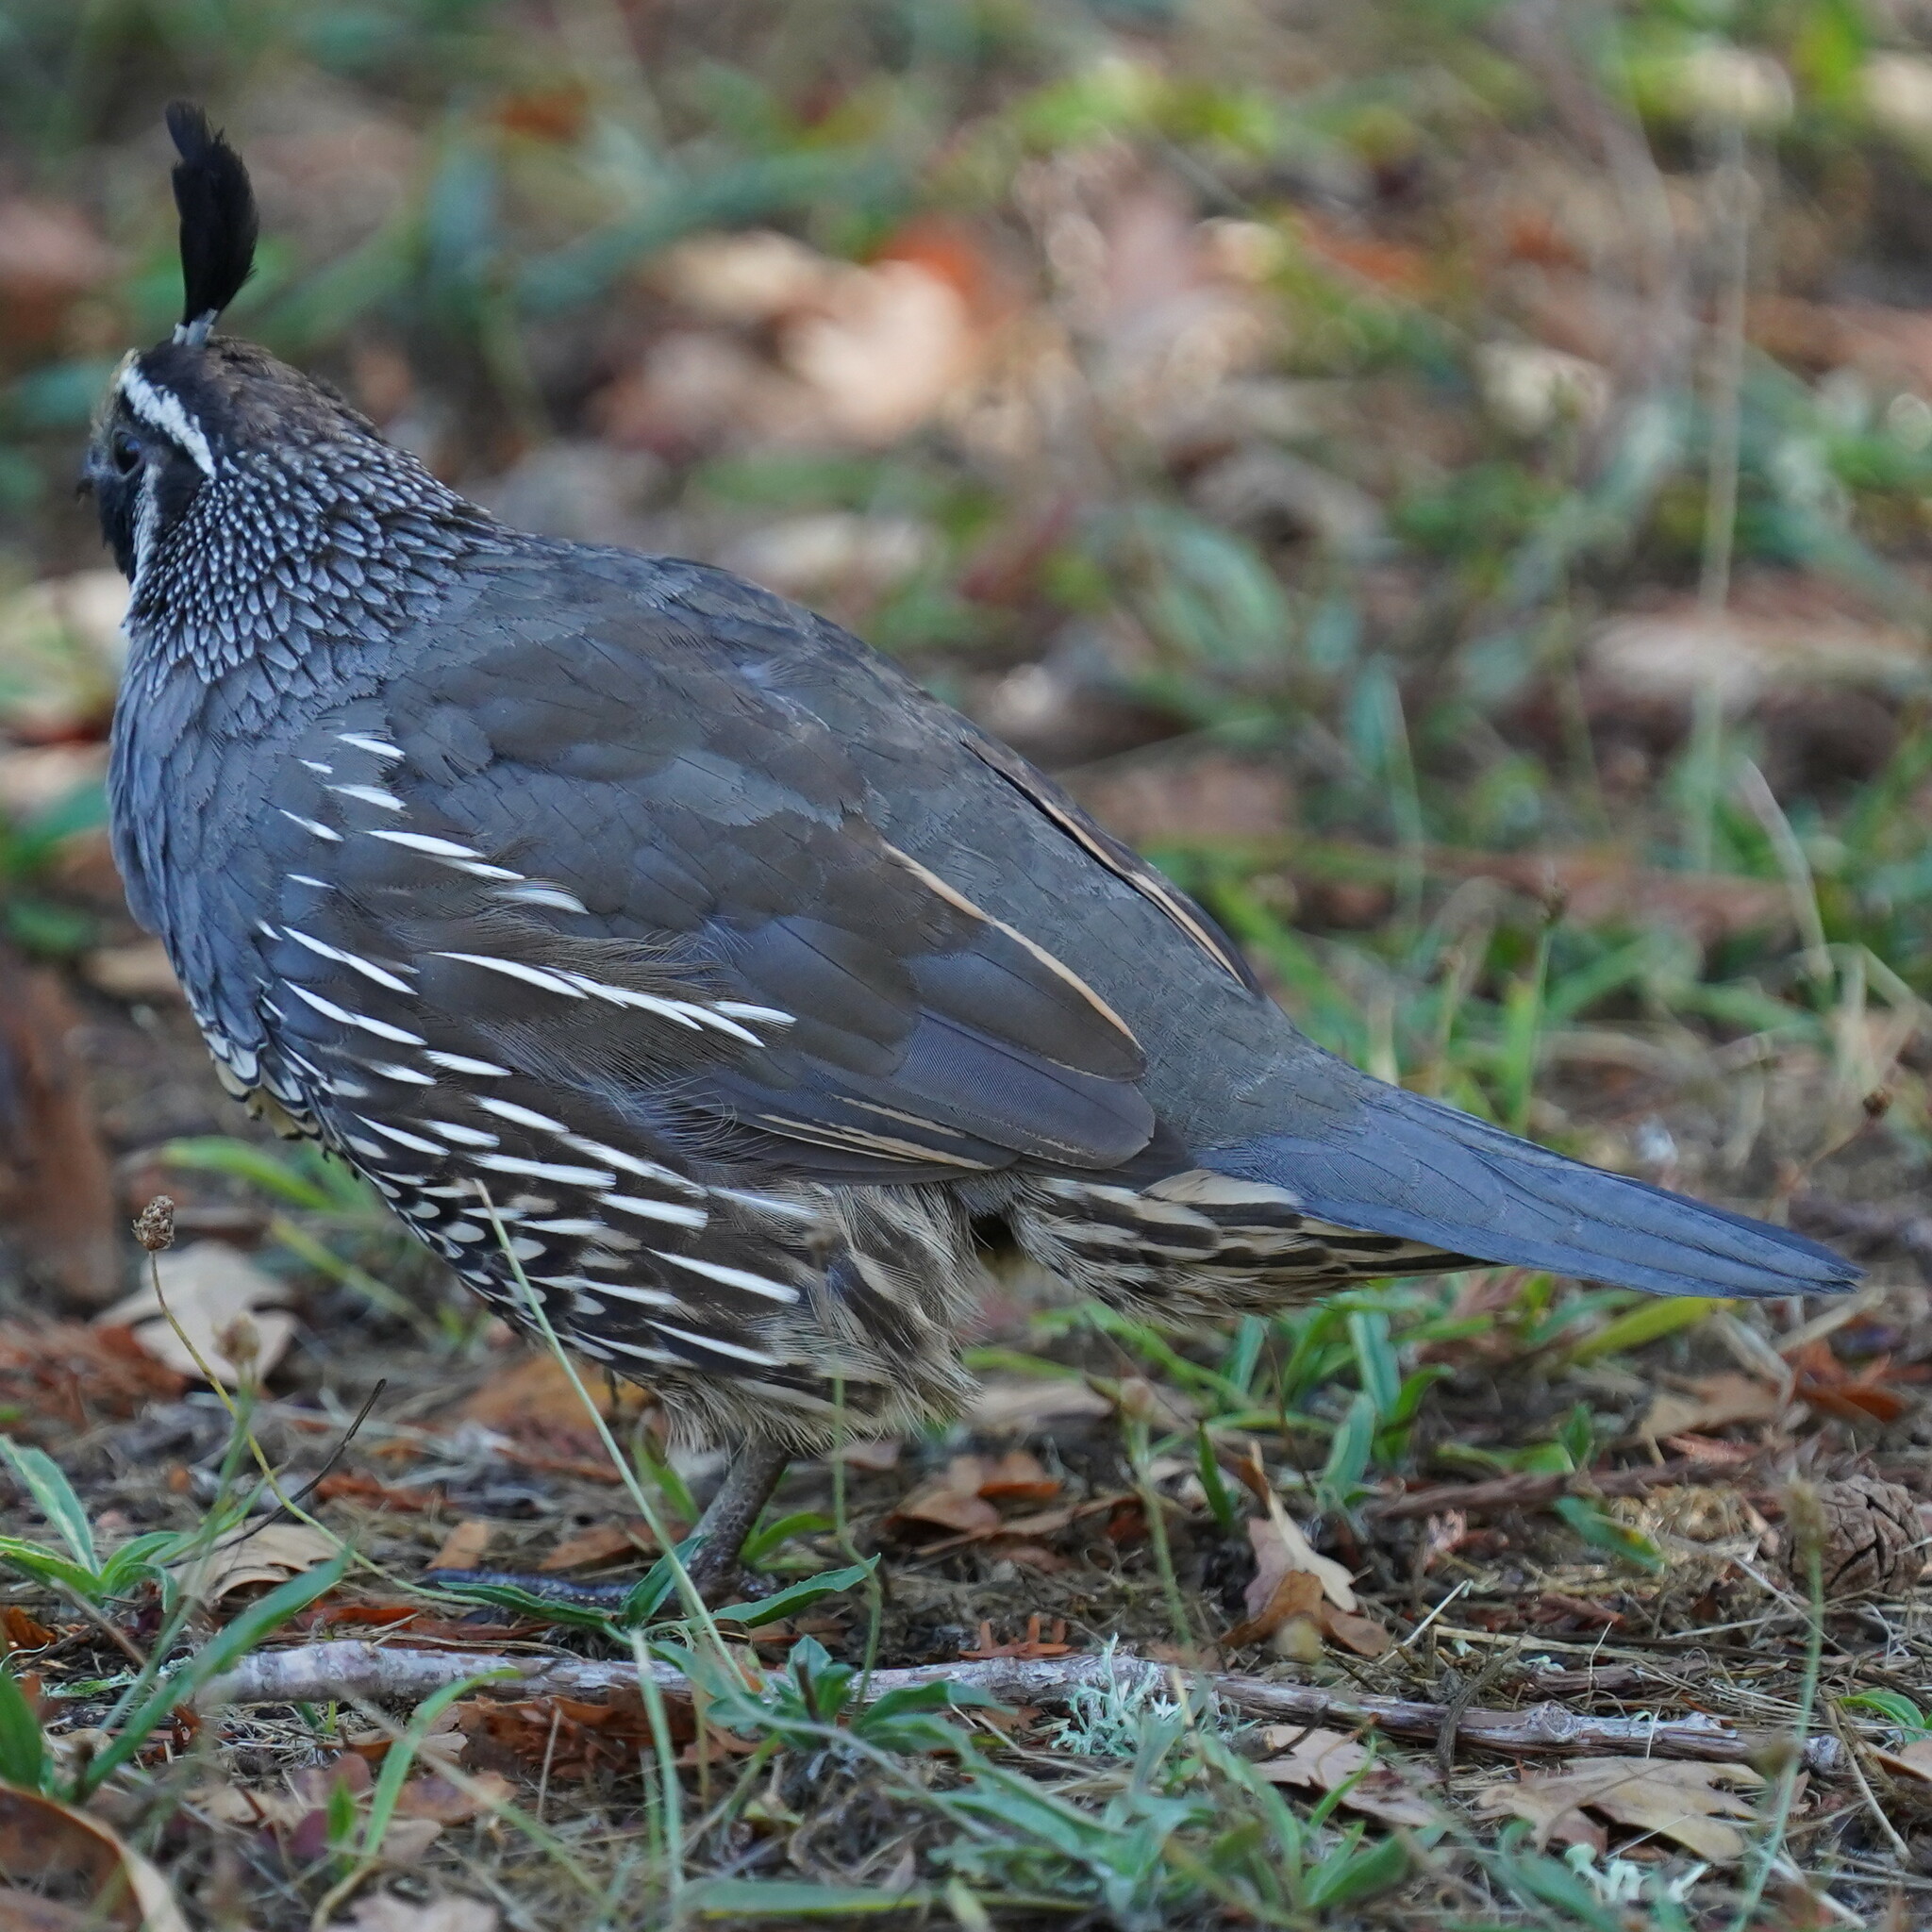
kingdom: Animalia
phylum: Chordata
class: Aves
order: Galliformes
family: Odontophoridae
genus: Callipepla
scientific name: Callipepla californica
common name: California quail
